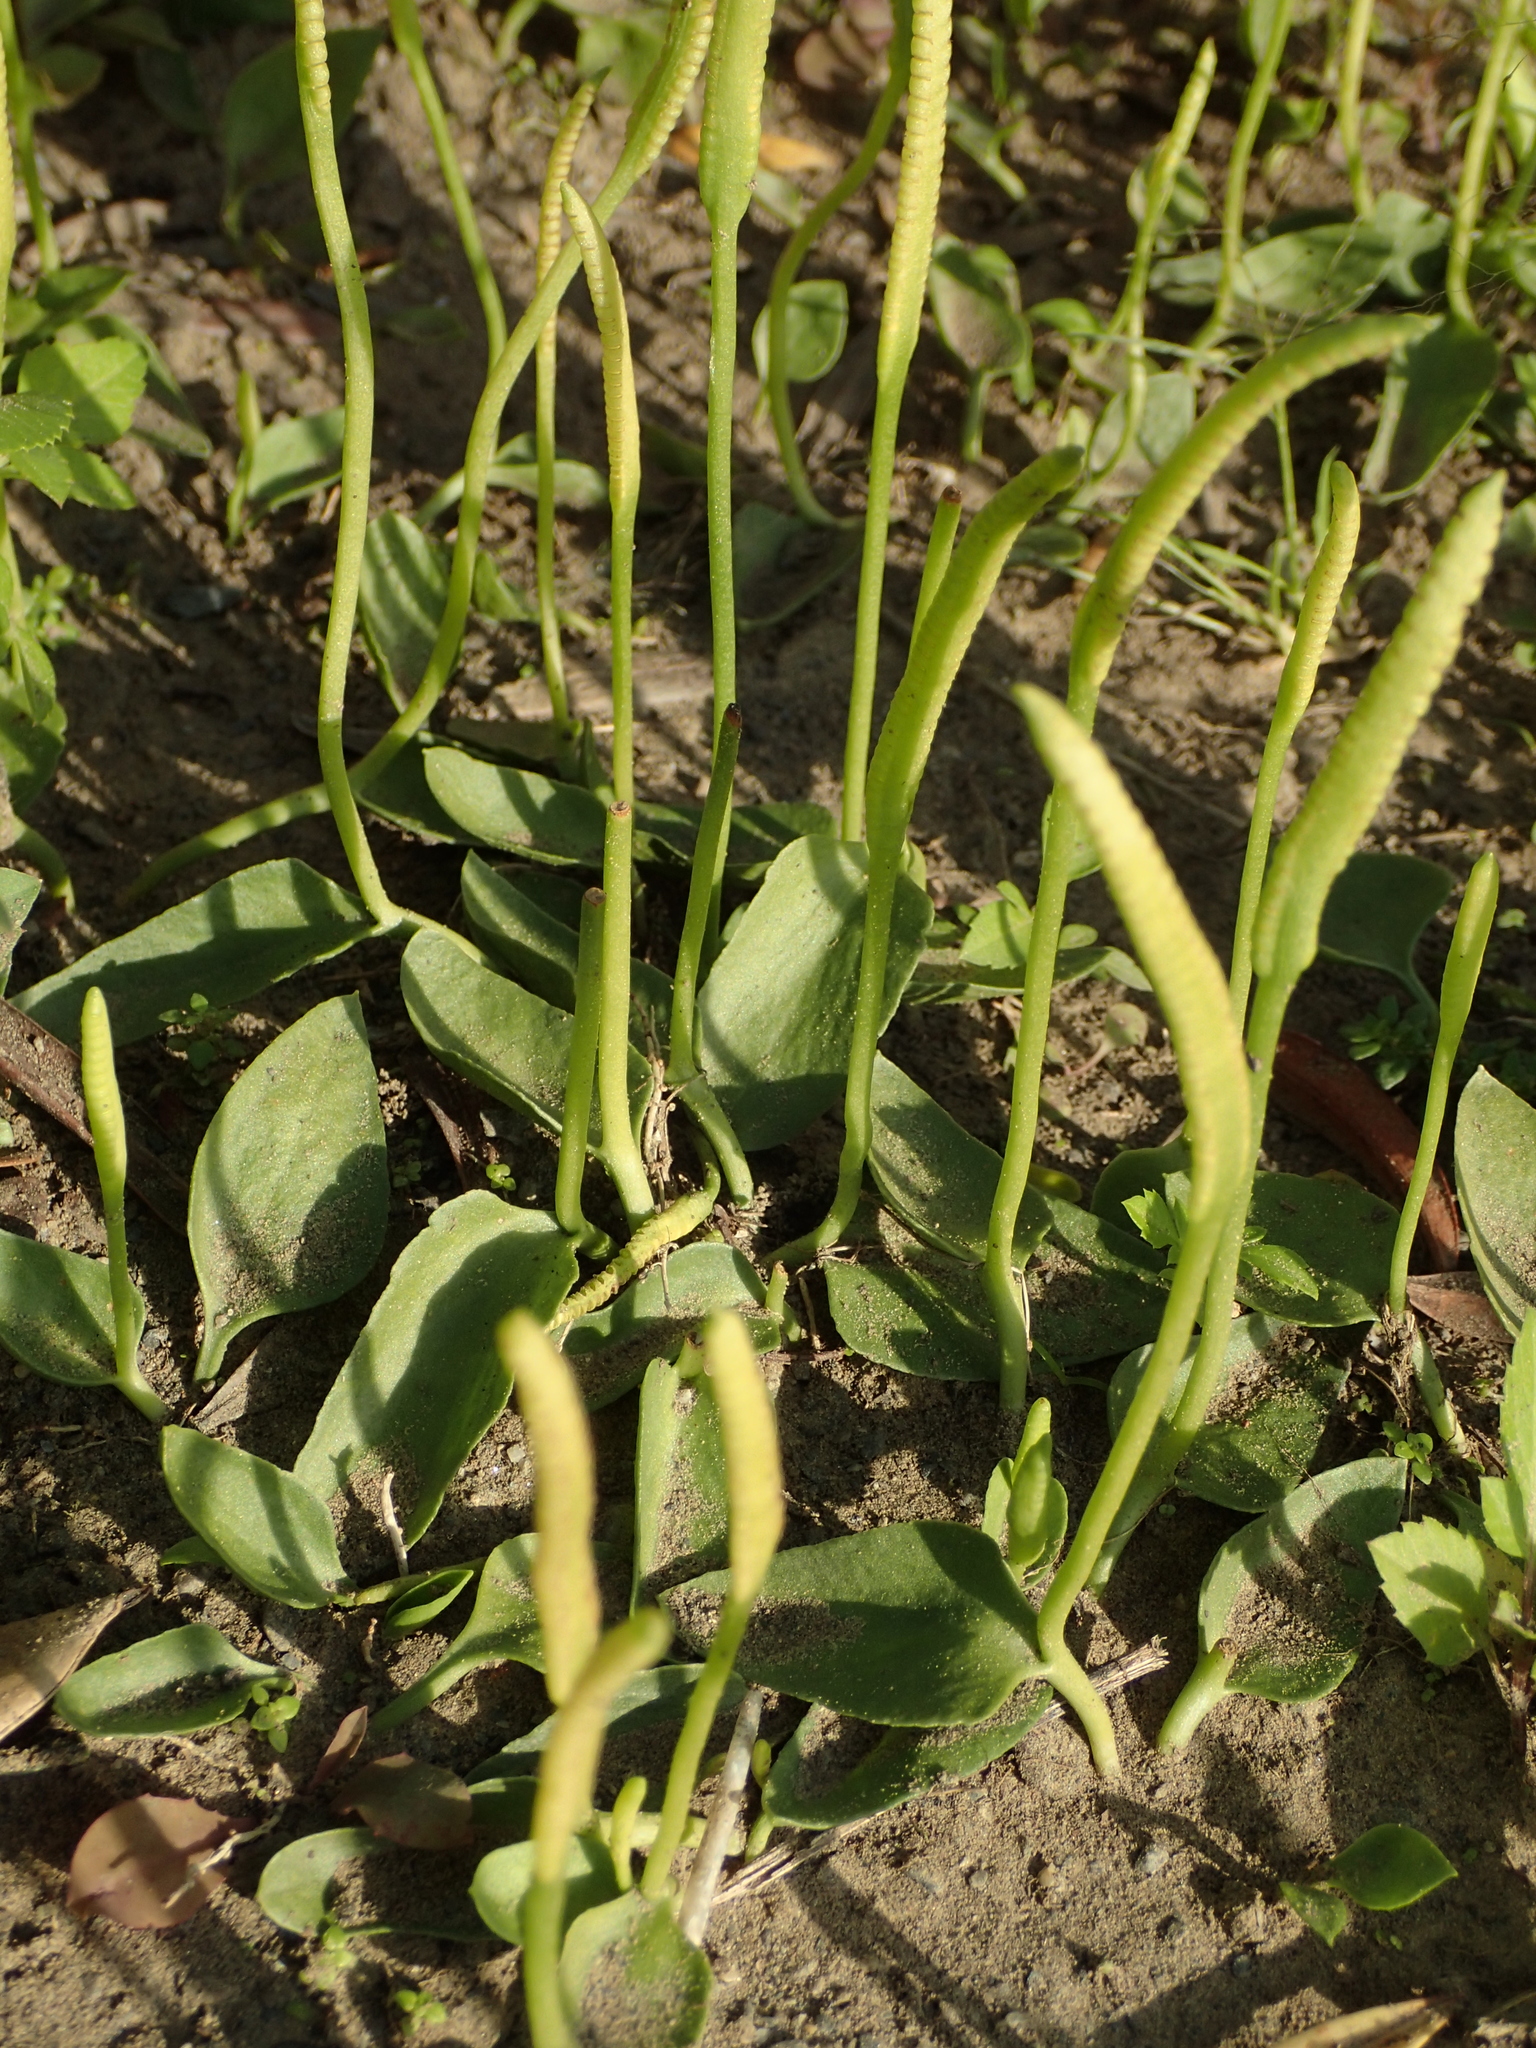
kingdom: Plantae
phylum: Tracheophyta
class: Polypodiopsida
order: Ophioglossales
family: Ophioglossaceae
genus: Ophioglossum
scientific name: Ophioglossum petiolatum
